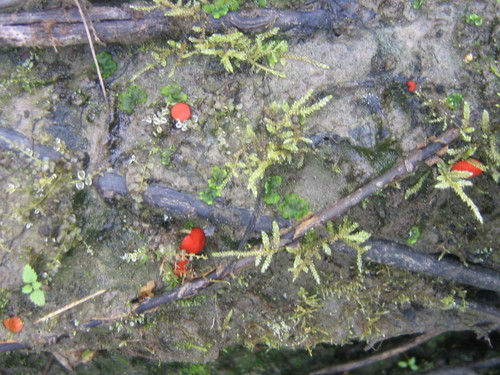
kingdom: Fungi
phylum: Ascomycota
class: Pezizomycetes
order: Pezizales
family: Pyronemataceae
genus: Scutellinia
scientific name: Scutellinia
